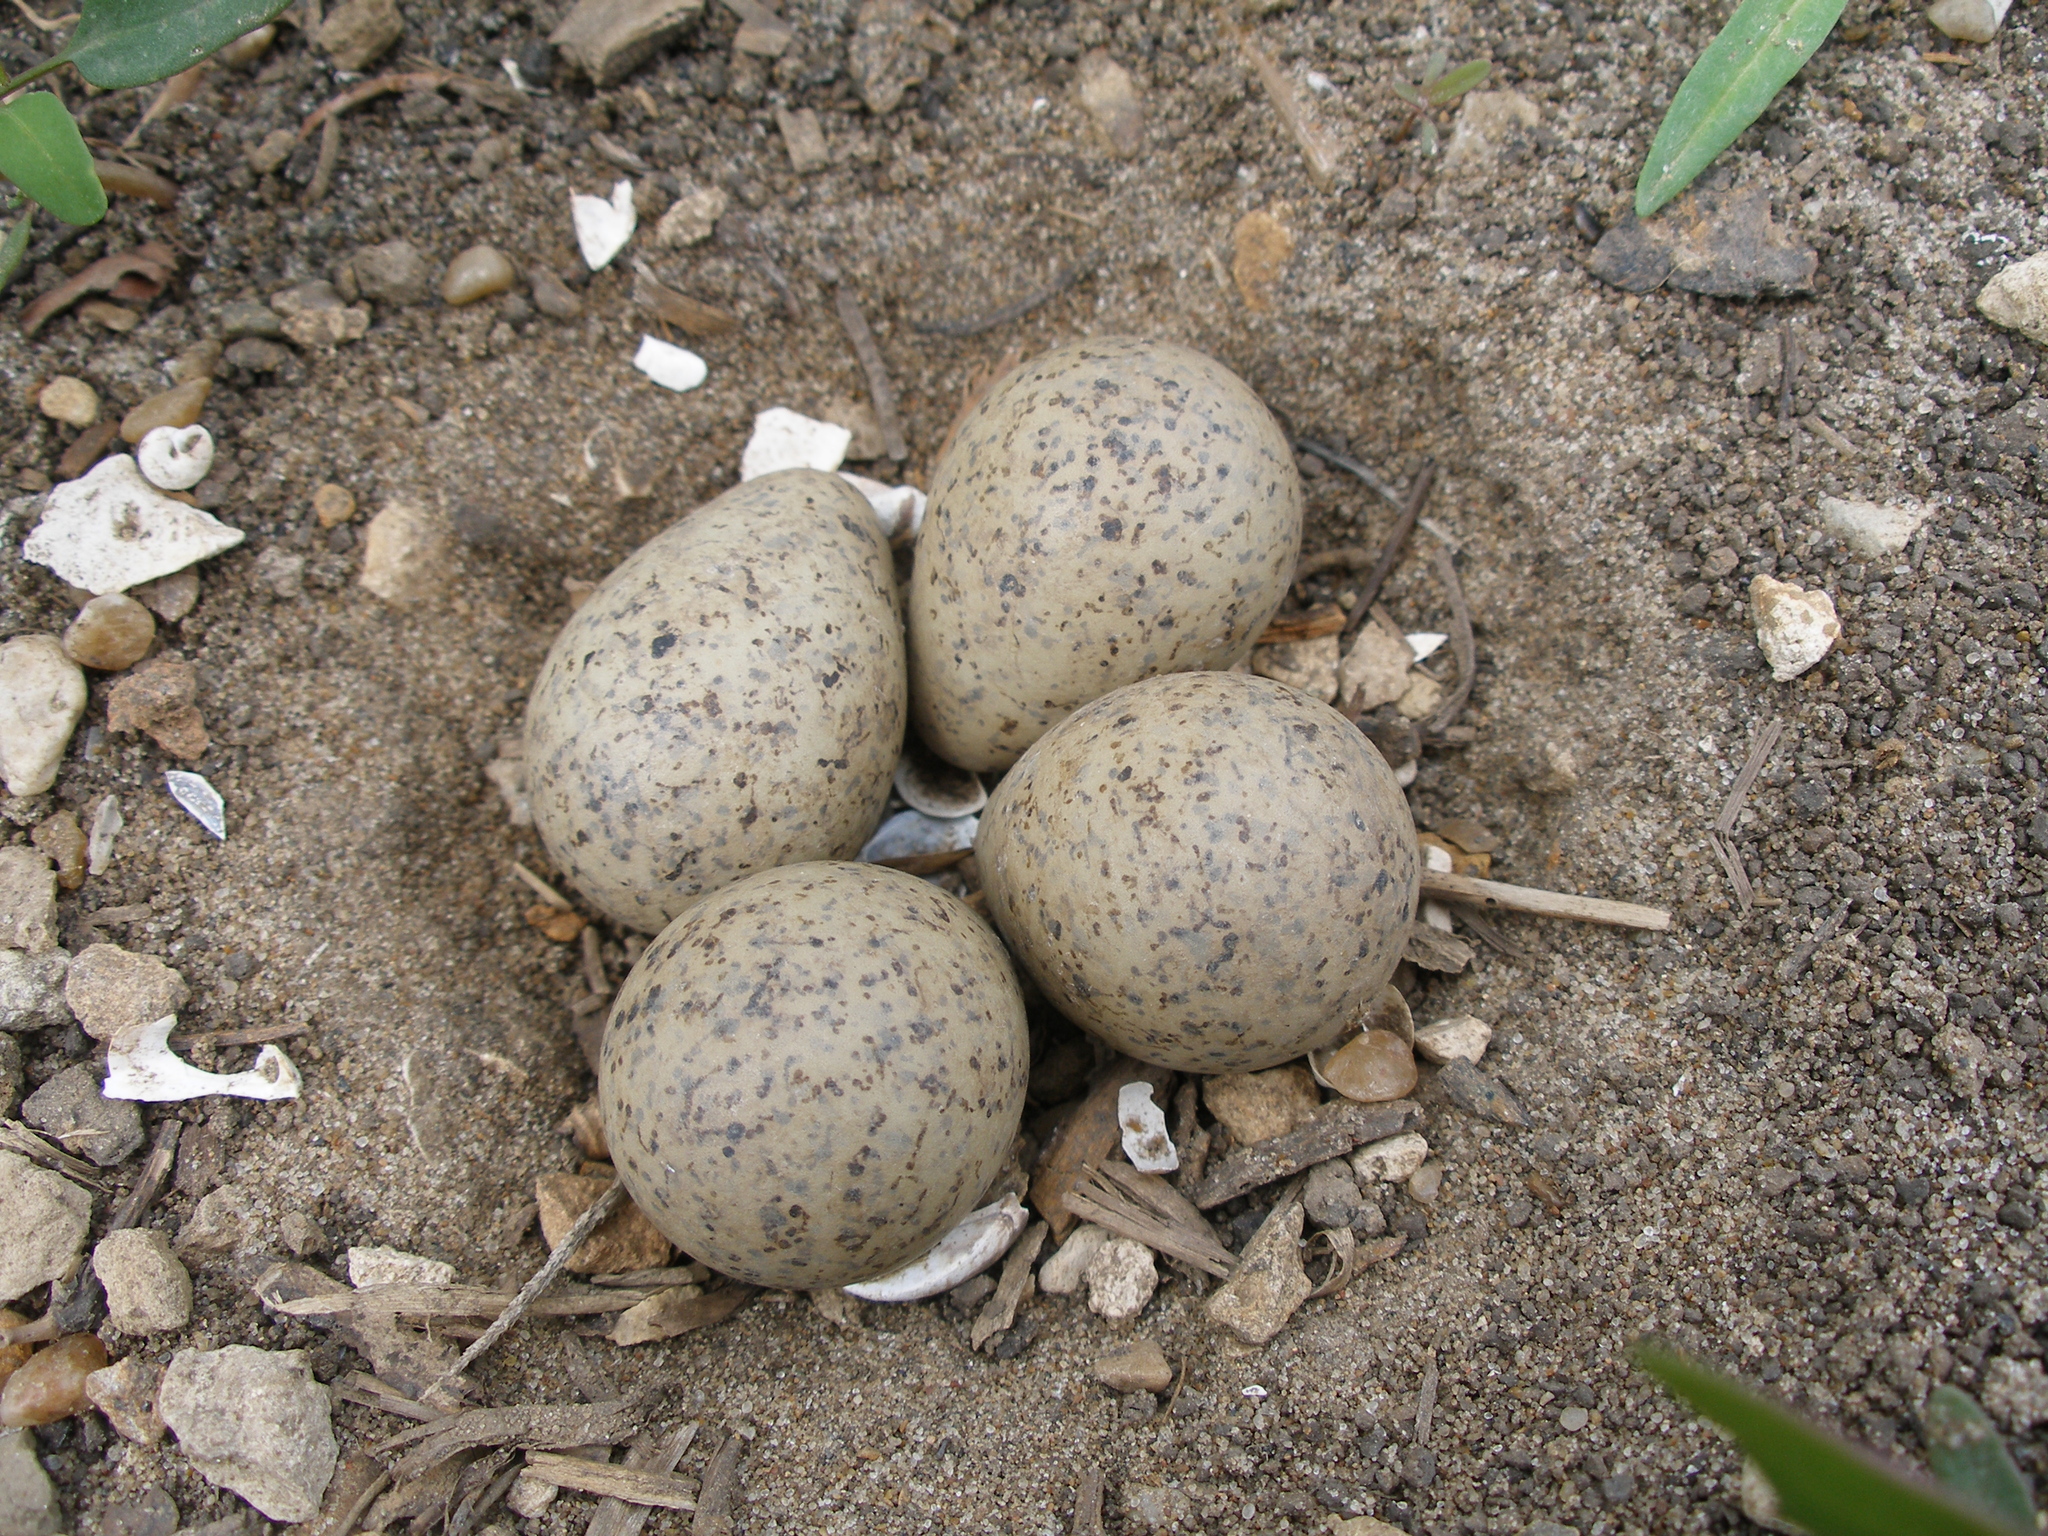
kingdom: Animalia
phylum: Chordata
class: Aves
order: Charadriiformes
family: Charadriidae
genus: Charadrius
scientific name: Charadrius dubius
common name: Little ringed plover
